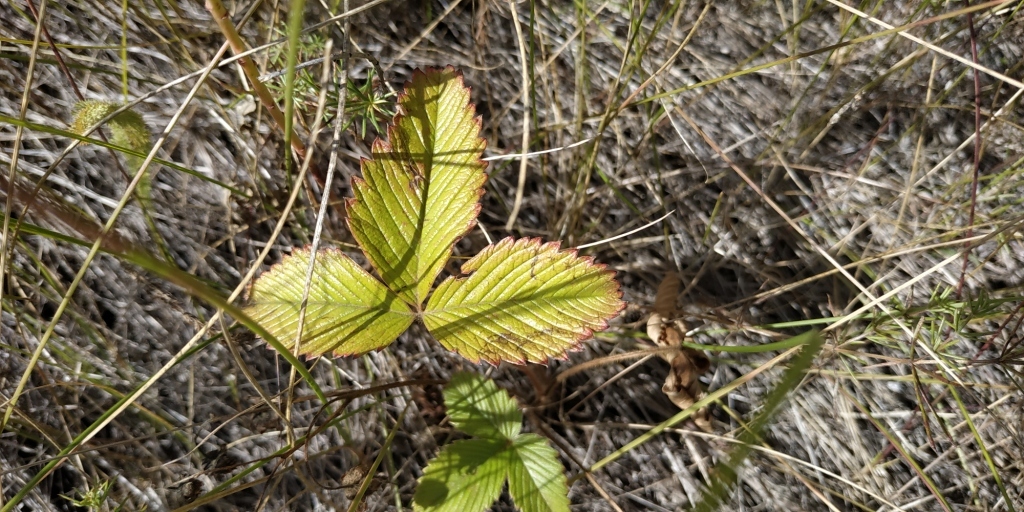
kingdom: Plantae
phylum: Tracheophyta
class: Magnoliopsida
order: Rosales
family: Rosaceae
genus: Fragaria
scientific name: Fragaria viridis
